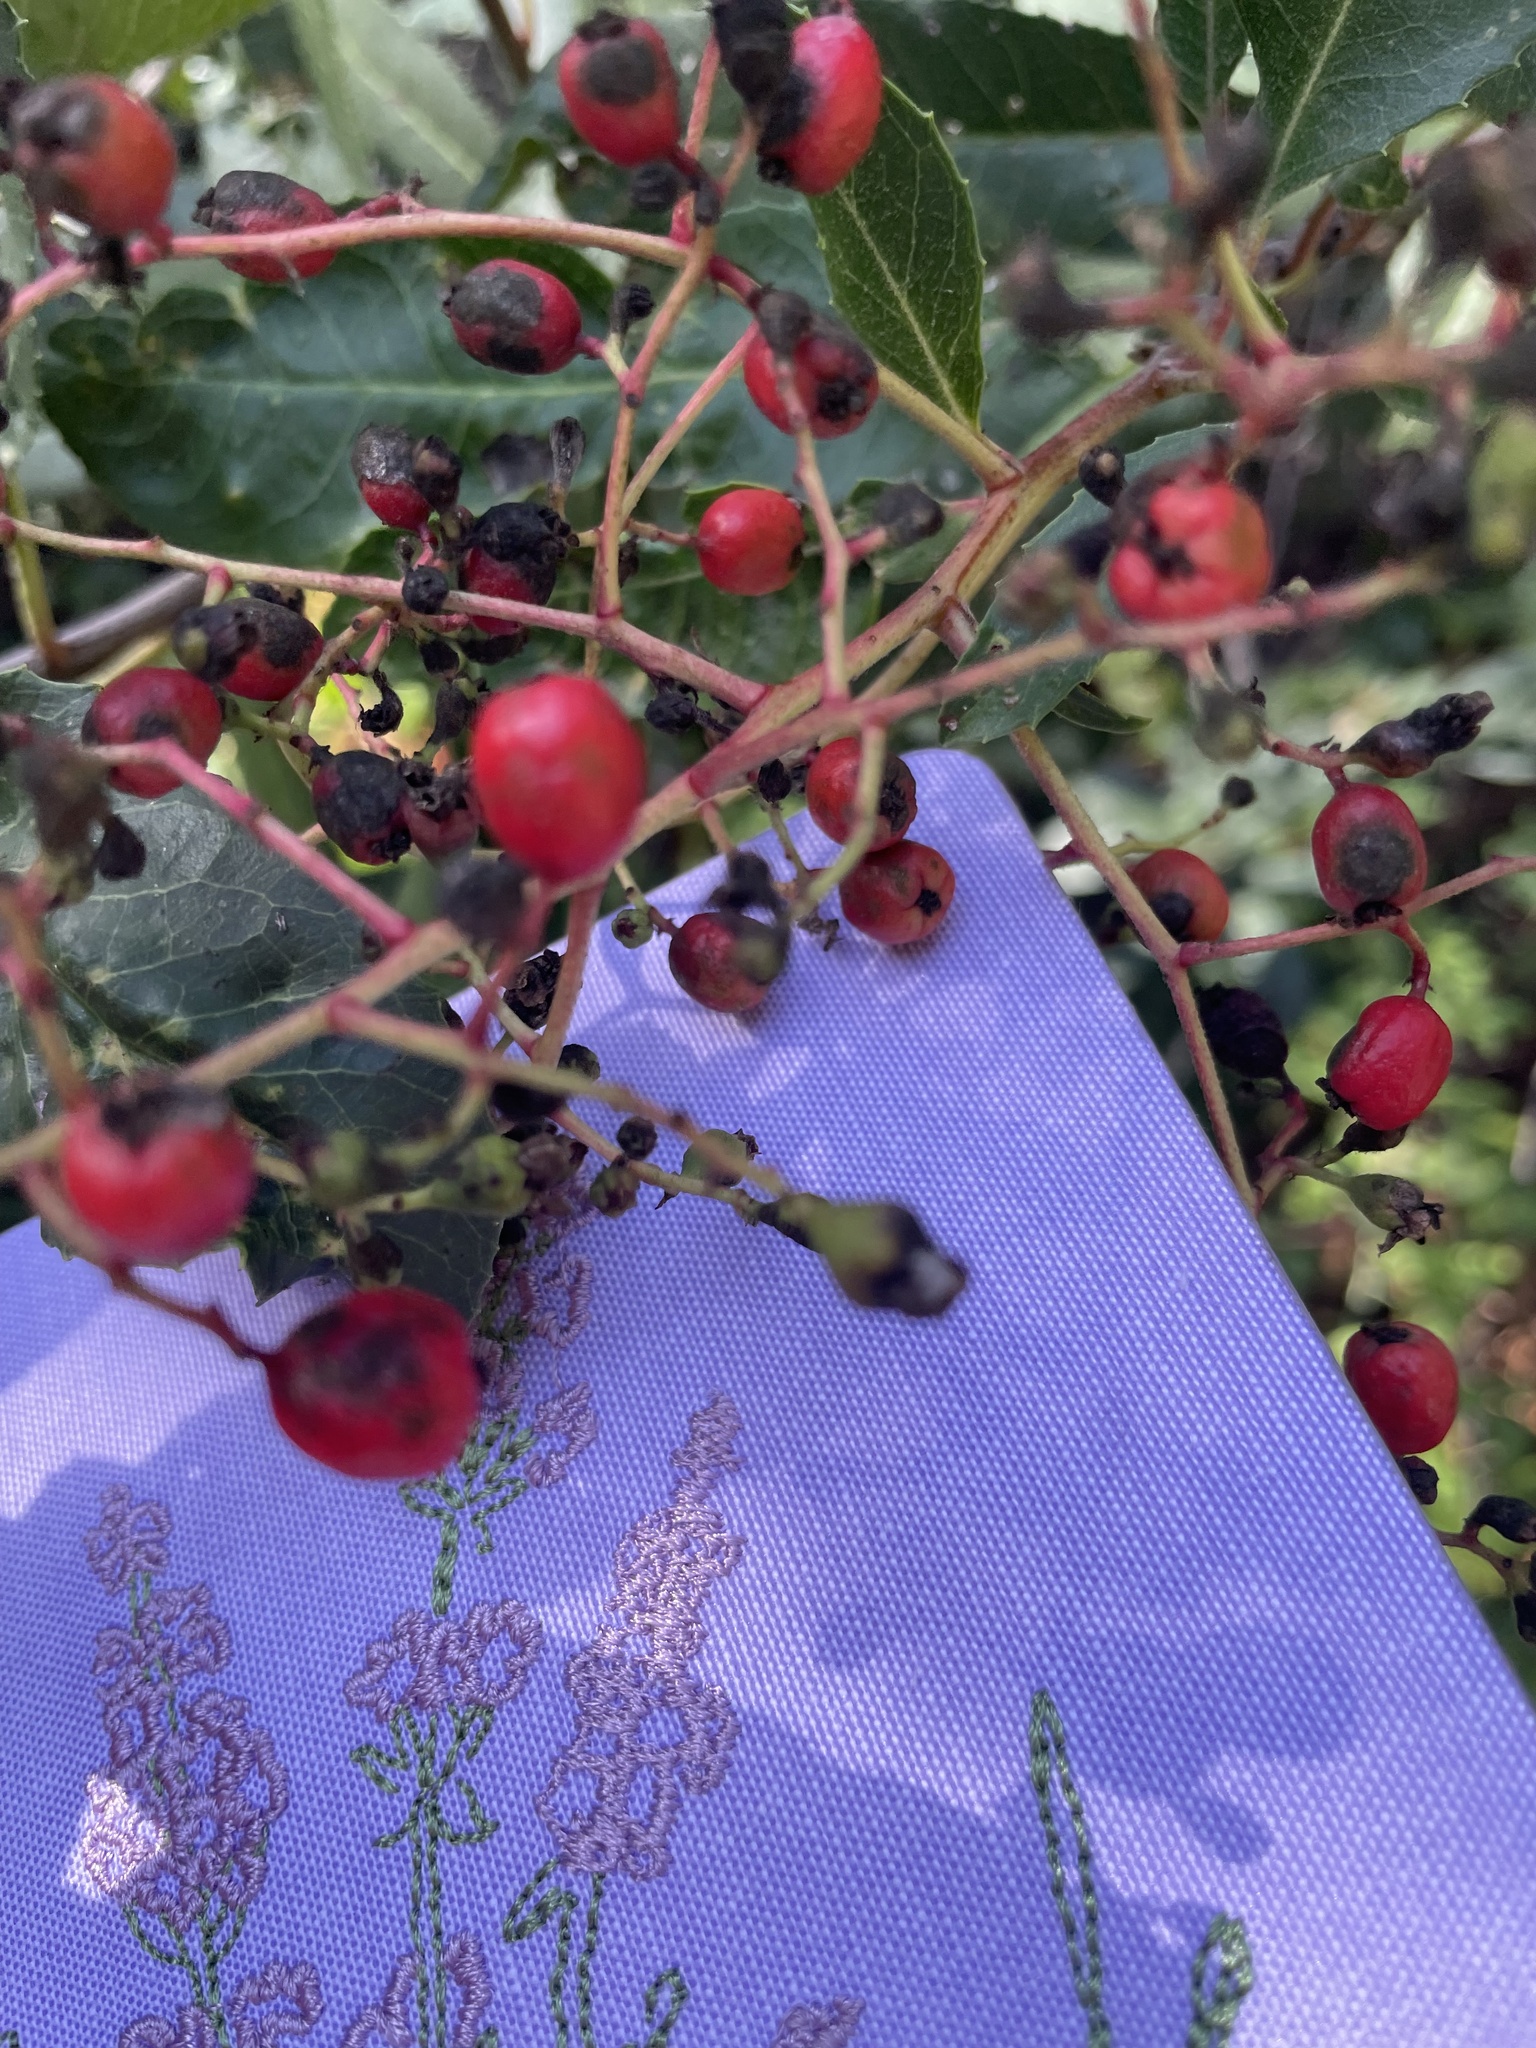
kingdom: Plantae
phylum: Tracheophyta
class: Magnoliopsida
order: Rosales
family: Rosaceae
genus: Heteromeles
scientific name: Heteromeles arbutifolia
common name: California-holly
